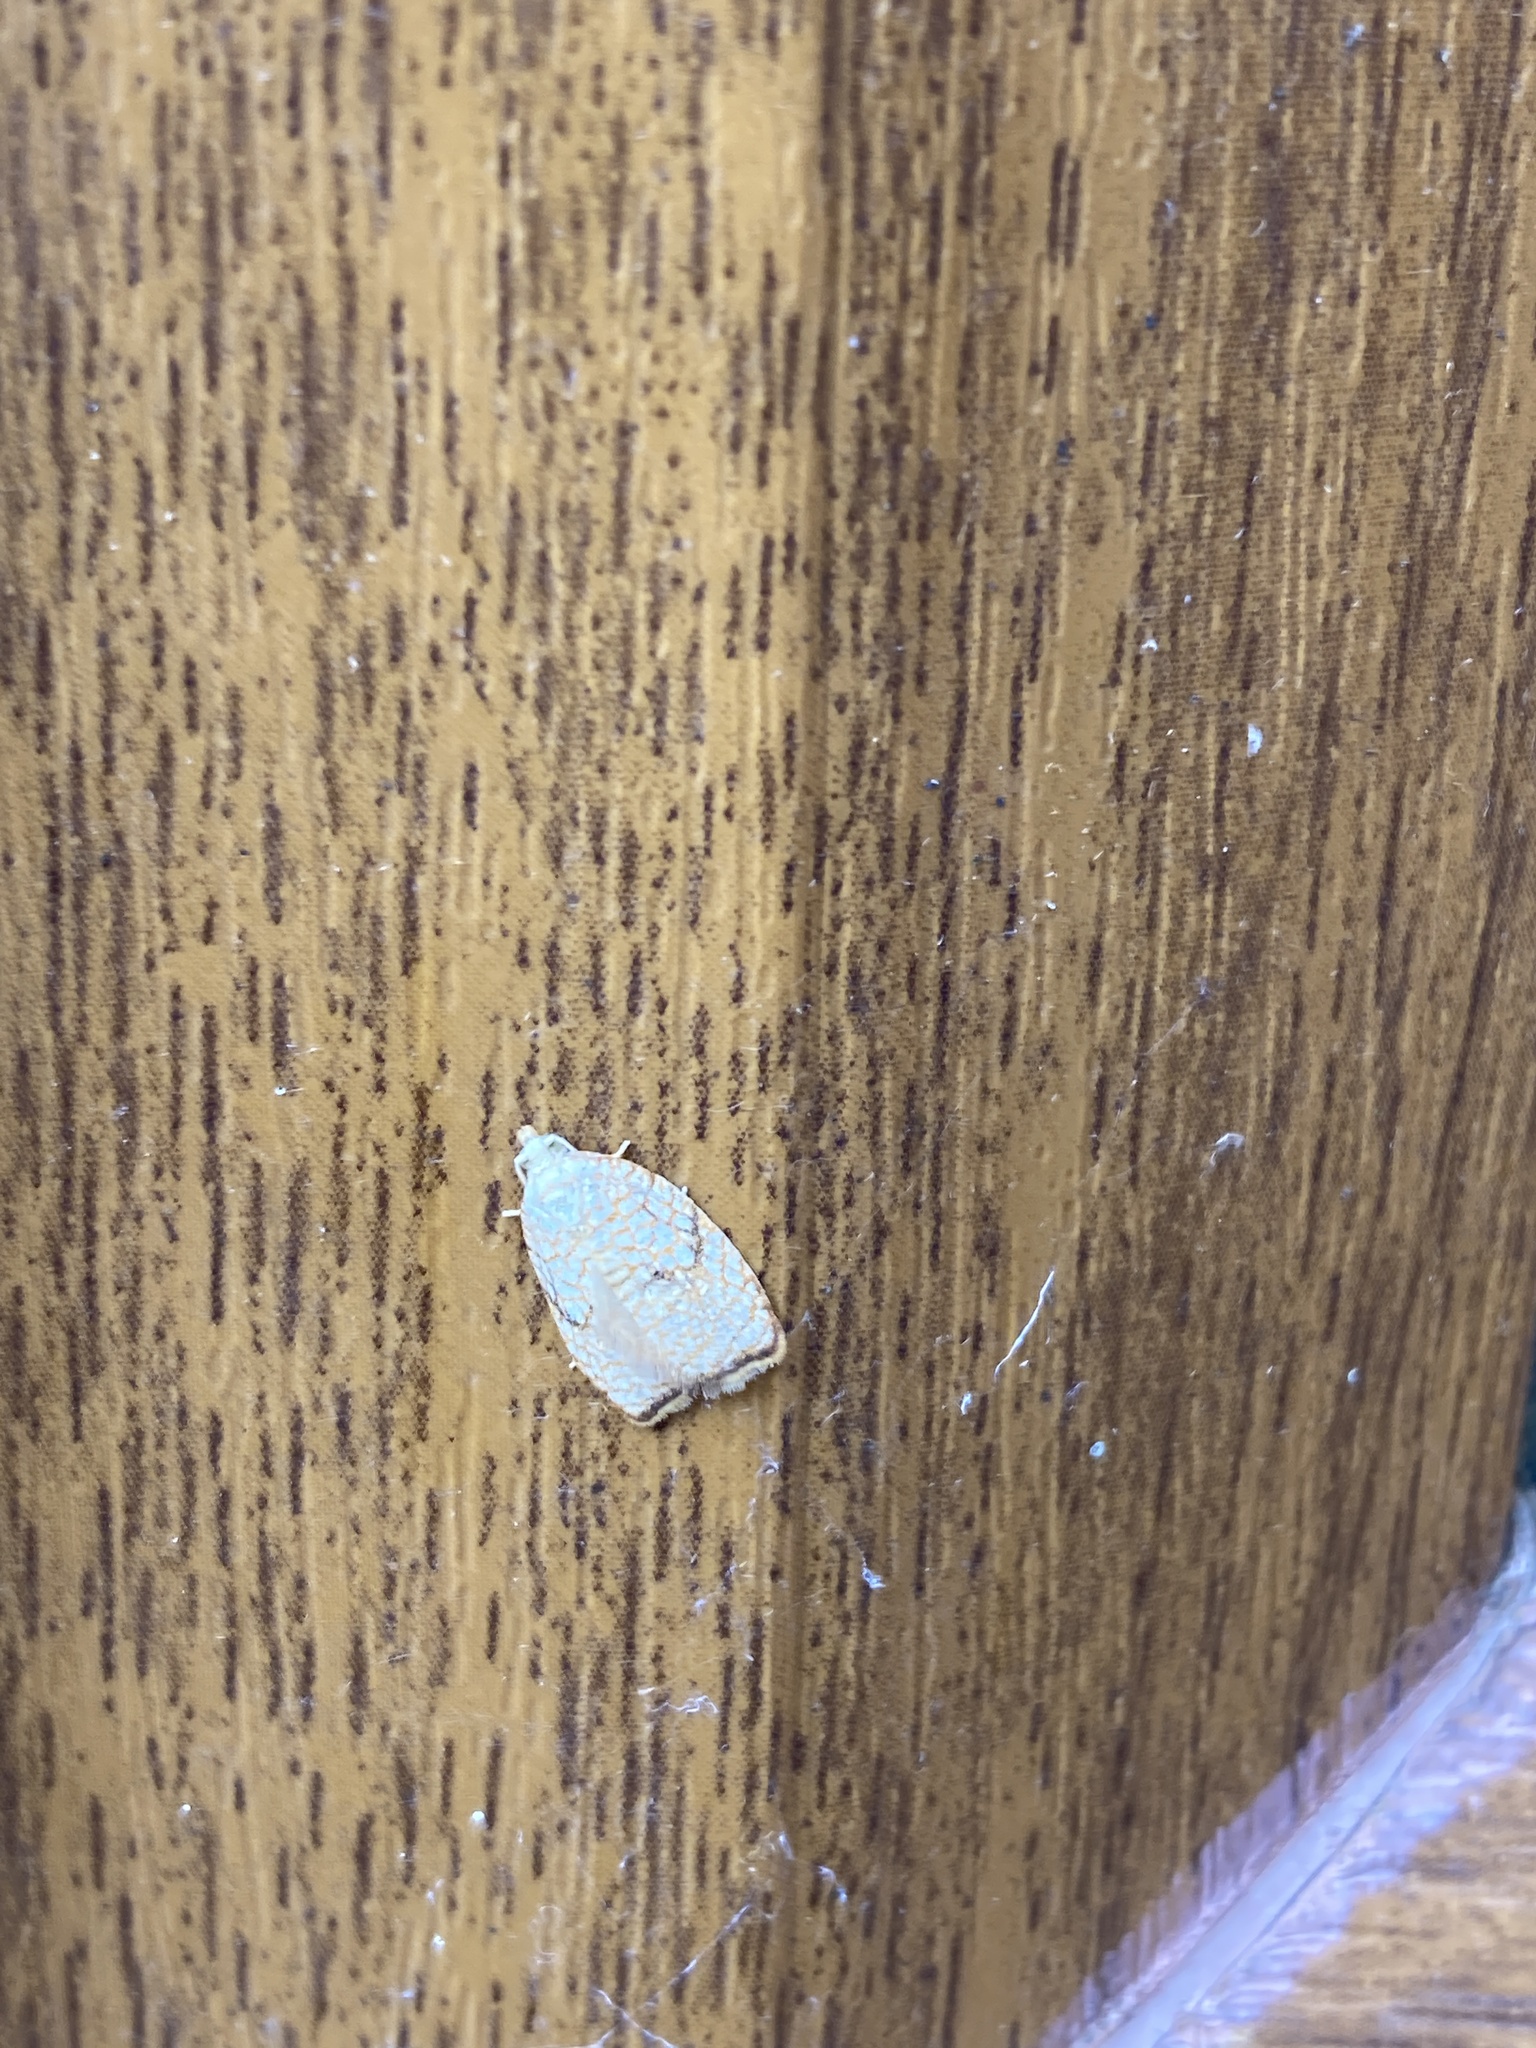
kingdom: Animalia
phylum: Arthropoda
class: Insecta
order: Lepidoptera
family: Tortricidae
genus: Acleris
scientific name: Acleris forsskaleana
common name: Maple button
